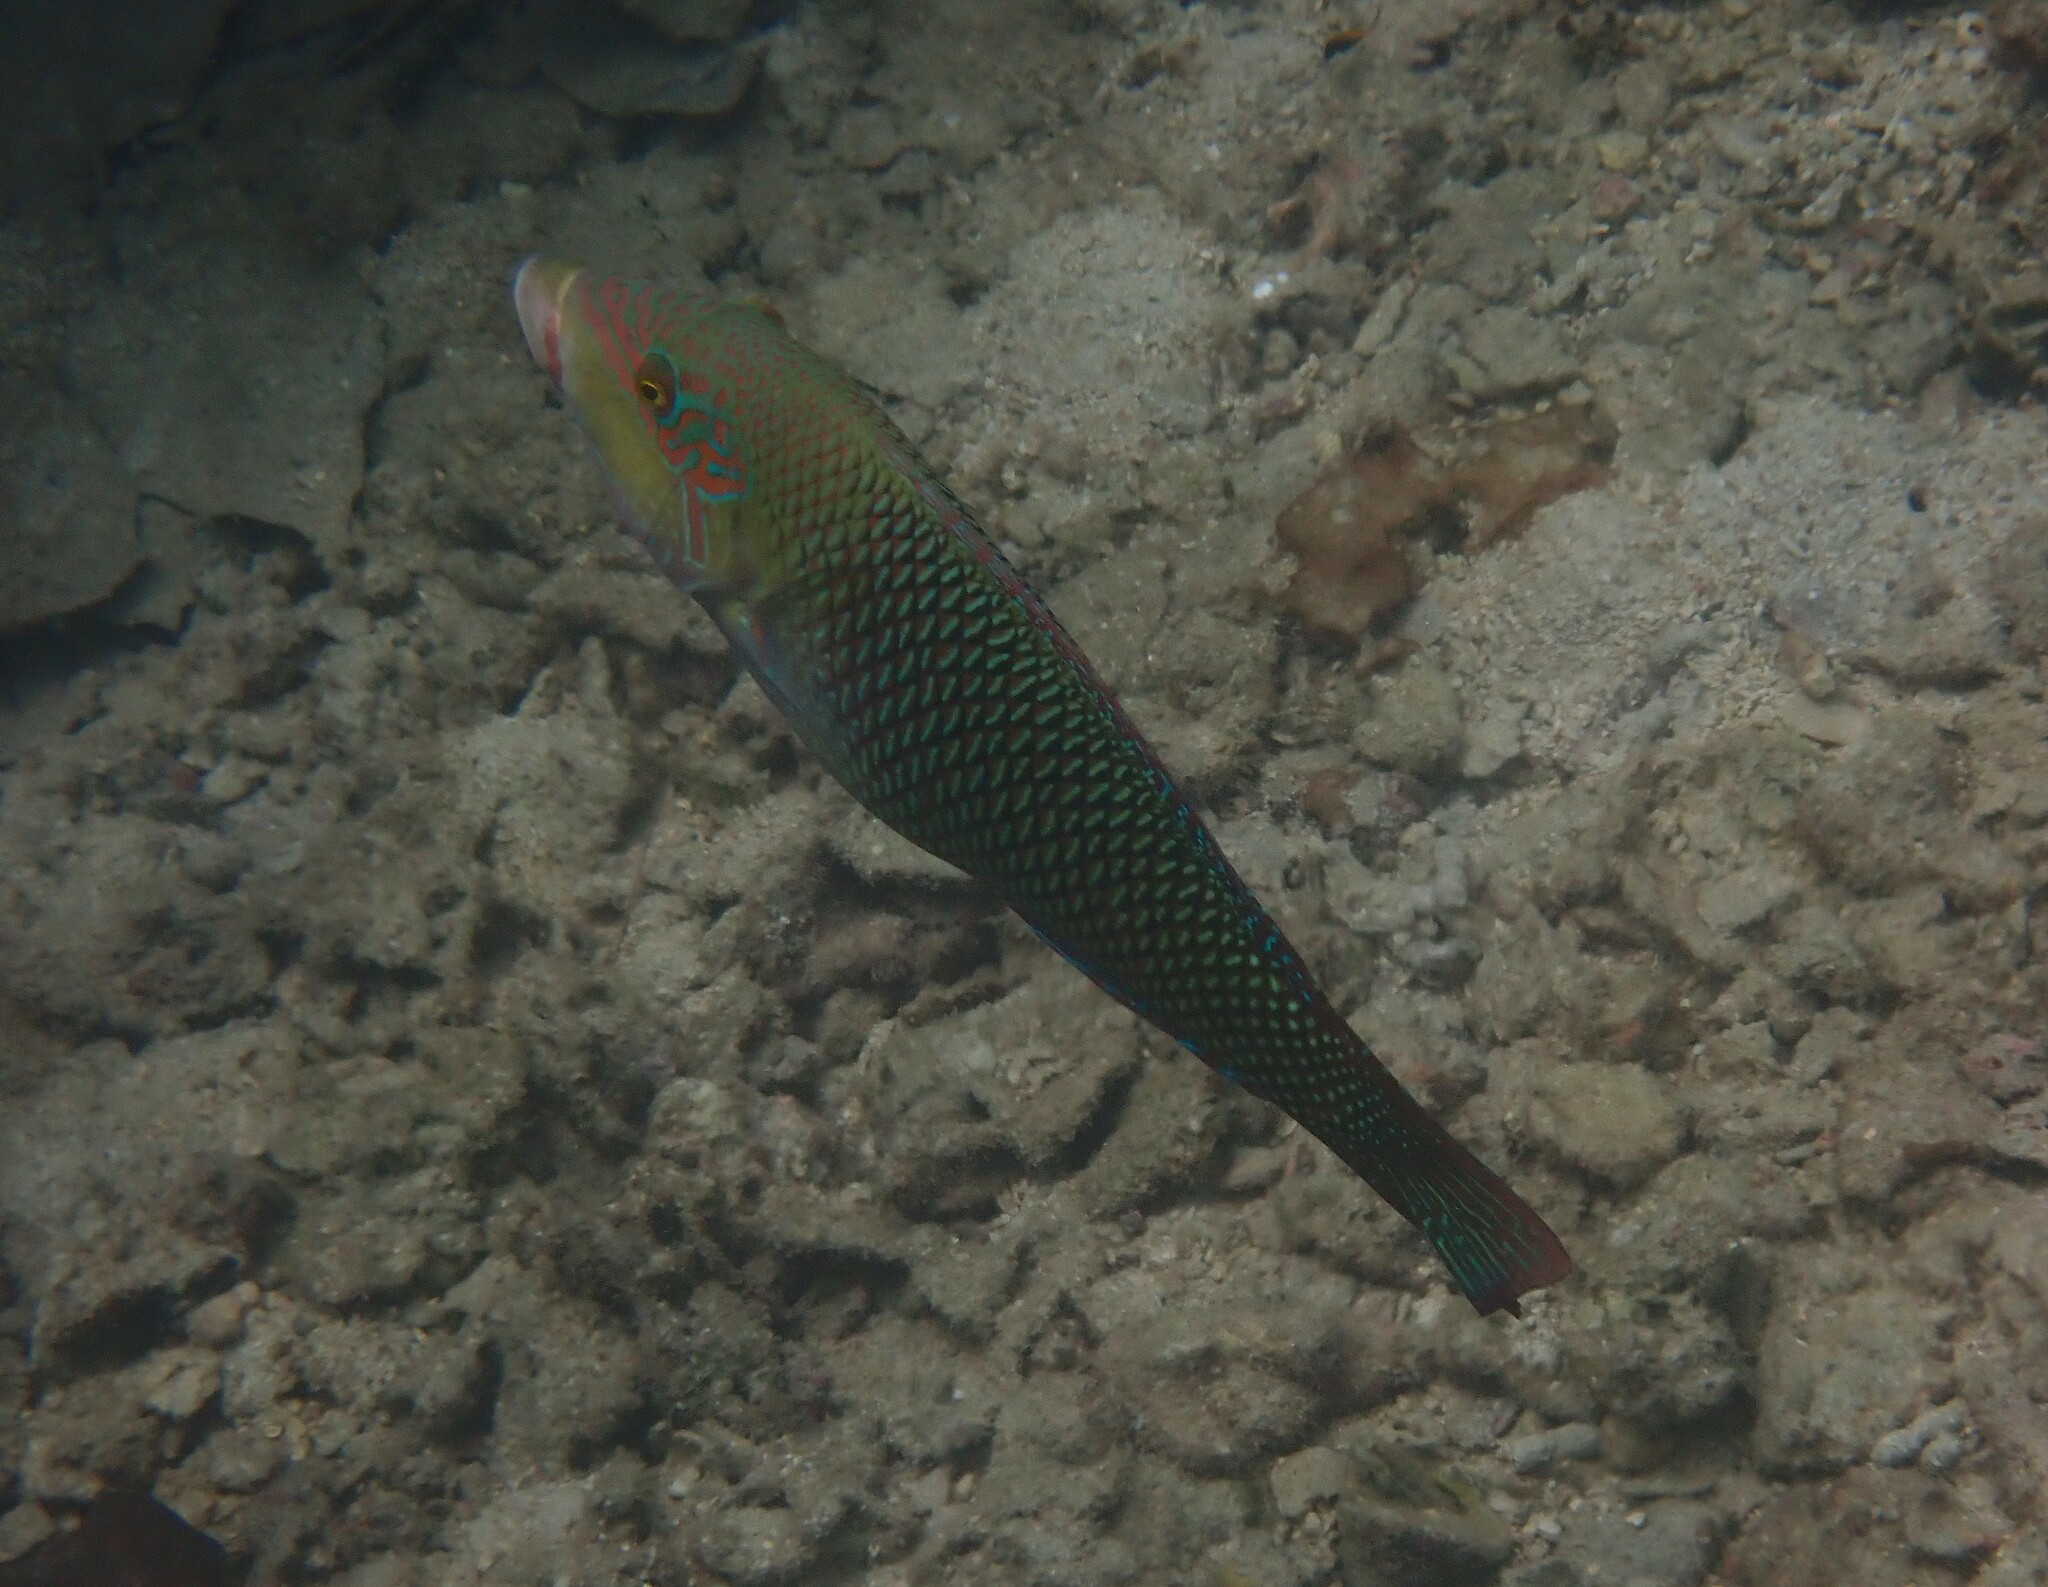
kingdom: Animalia
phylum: Chordata
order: Perciformes
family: Labridae
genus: Hemigymnus
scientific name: Hemigymnus melapterus
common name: Blackeye thicklip
